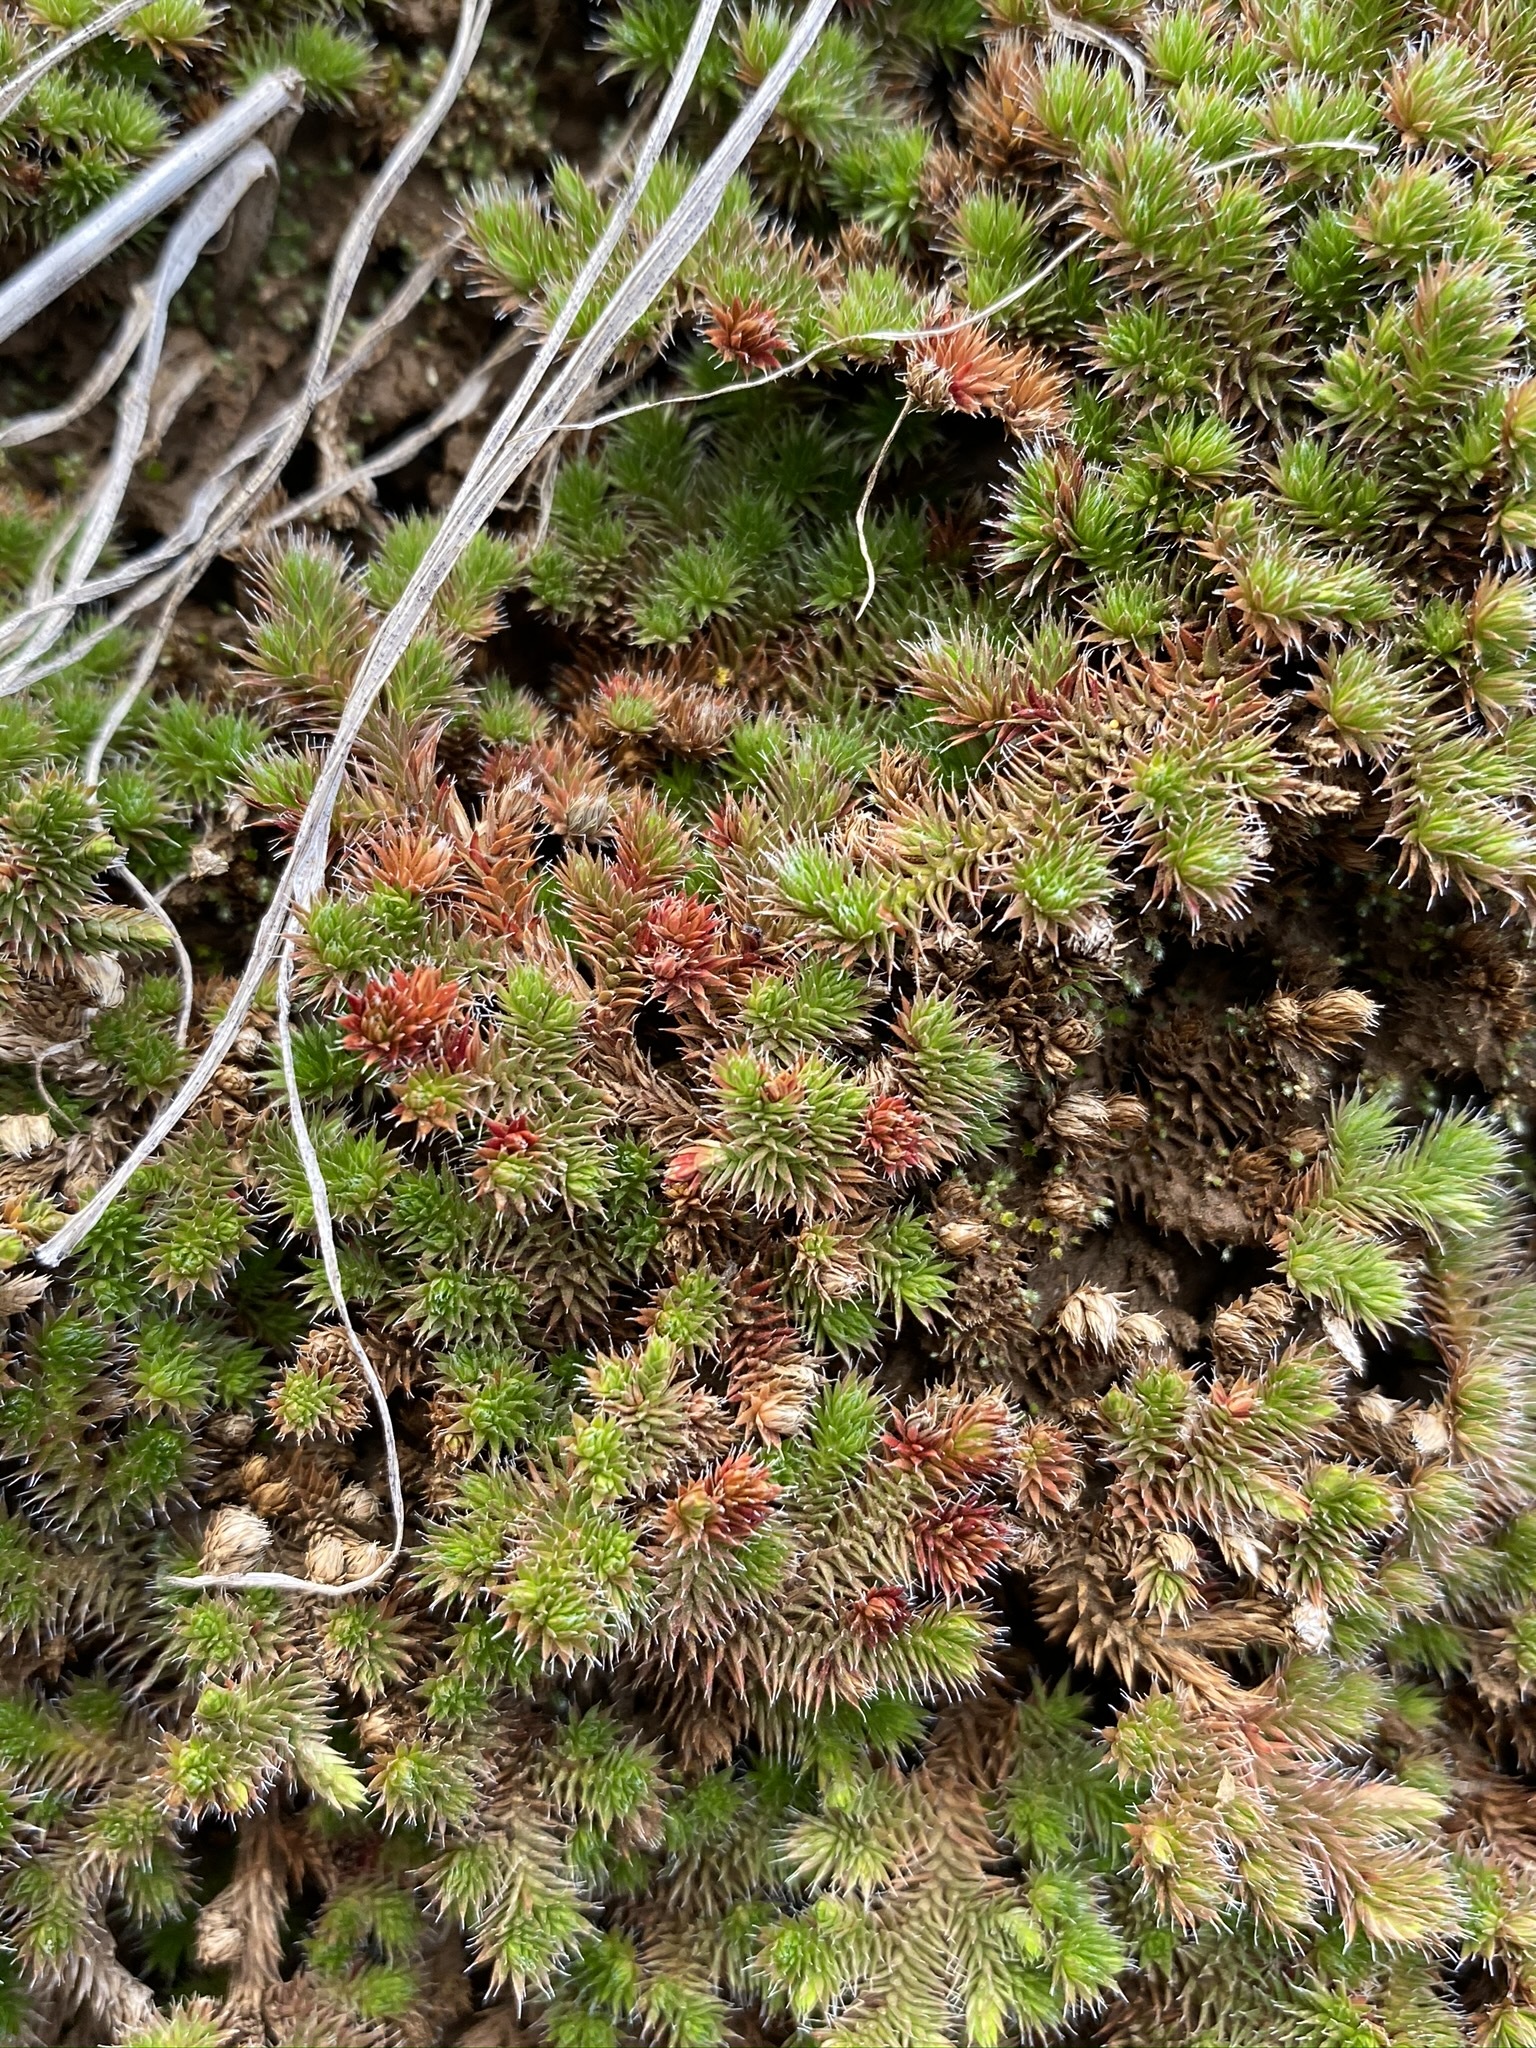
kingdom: Plantae
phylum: Tracheophyta
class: Lycopodiopsida
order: Selaginellales
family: Selaginellaceae
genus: Selaginella
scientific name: Selaginella hansenii
